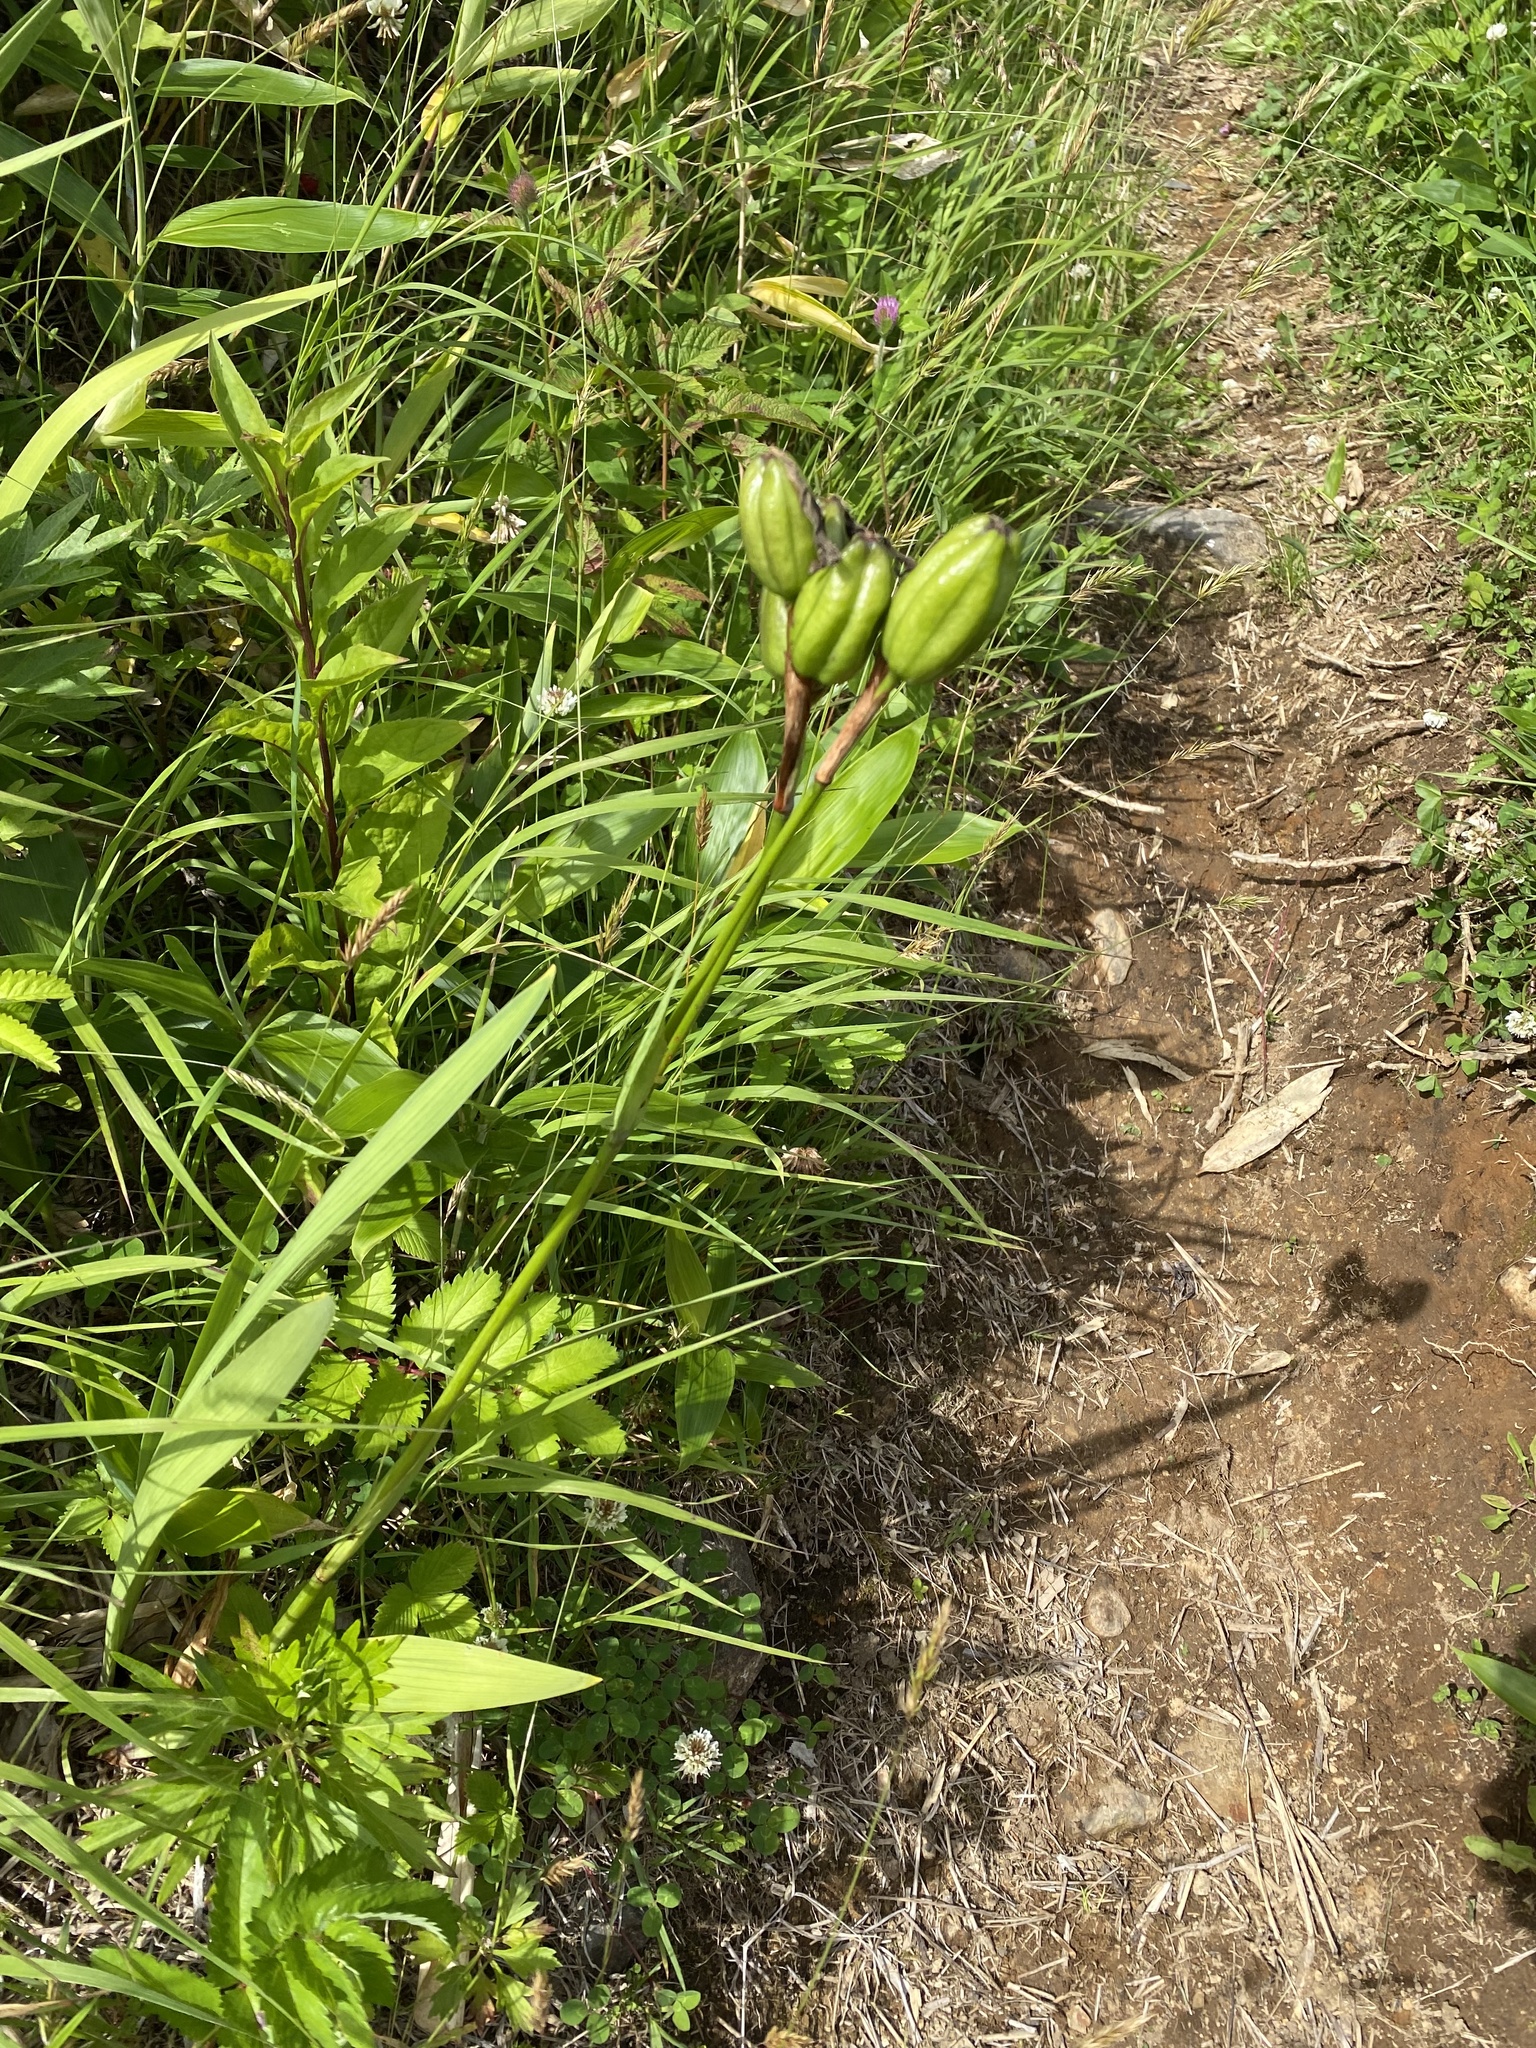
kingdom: Plantae
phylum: Tracheophyta
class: Liliopsida
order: Asparagales
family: Iridaceae
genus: Iris
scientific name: Iris setosa
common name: Arctic blue flag
